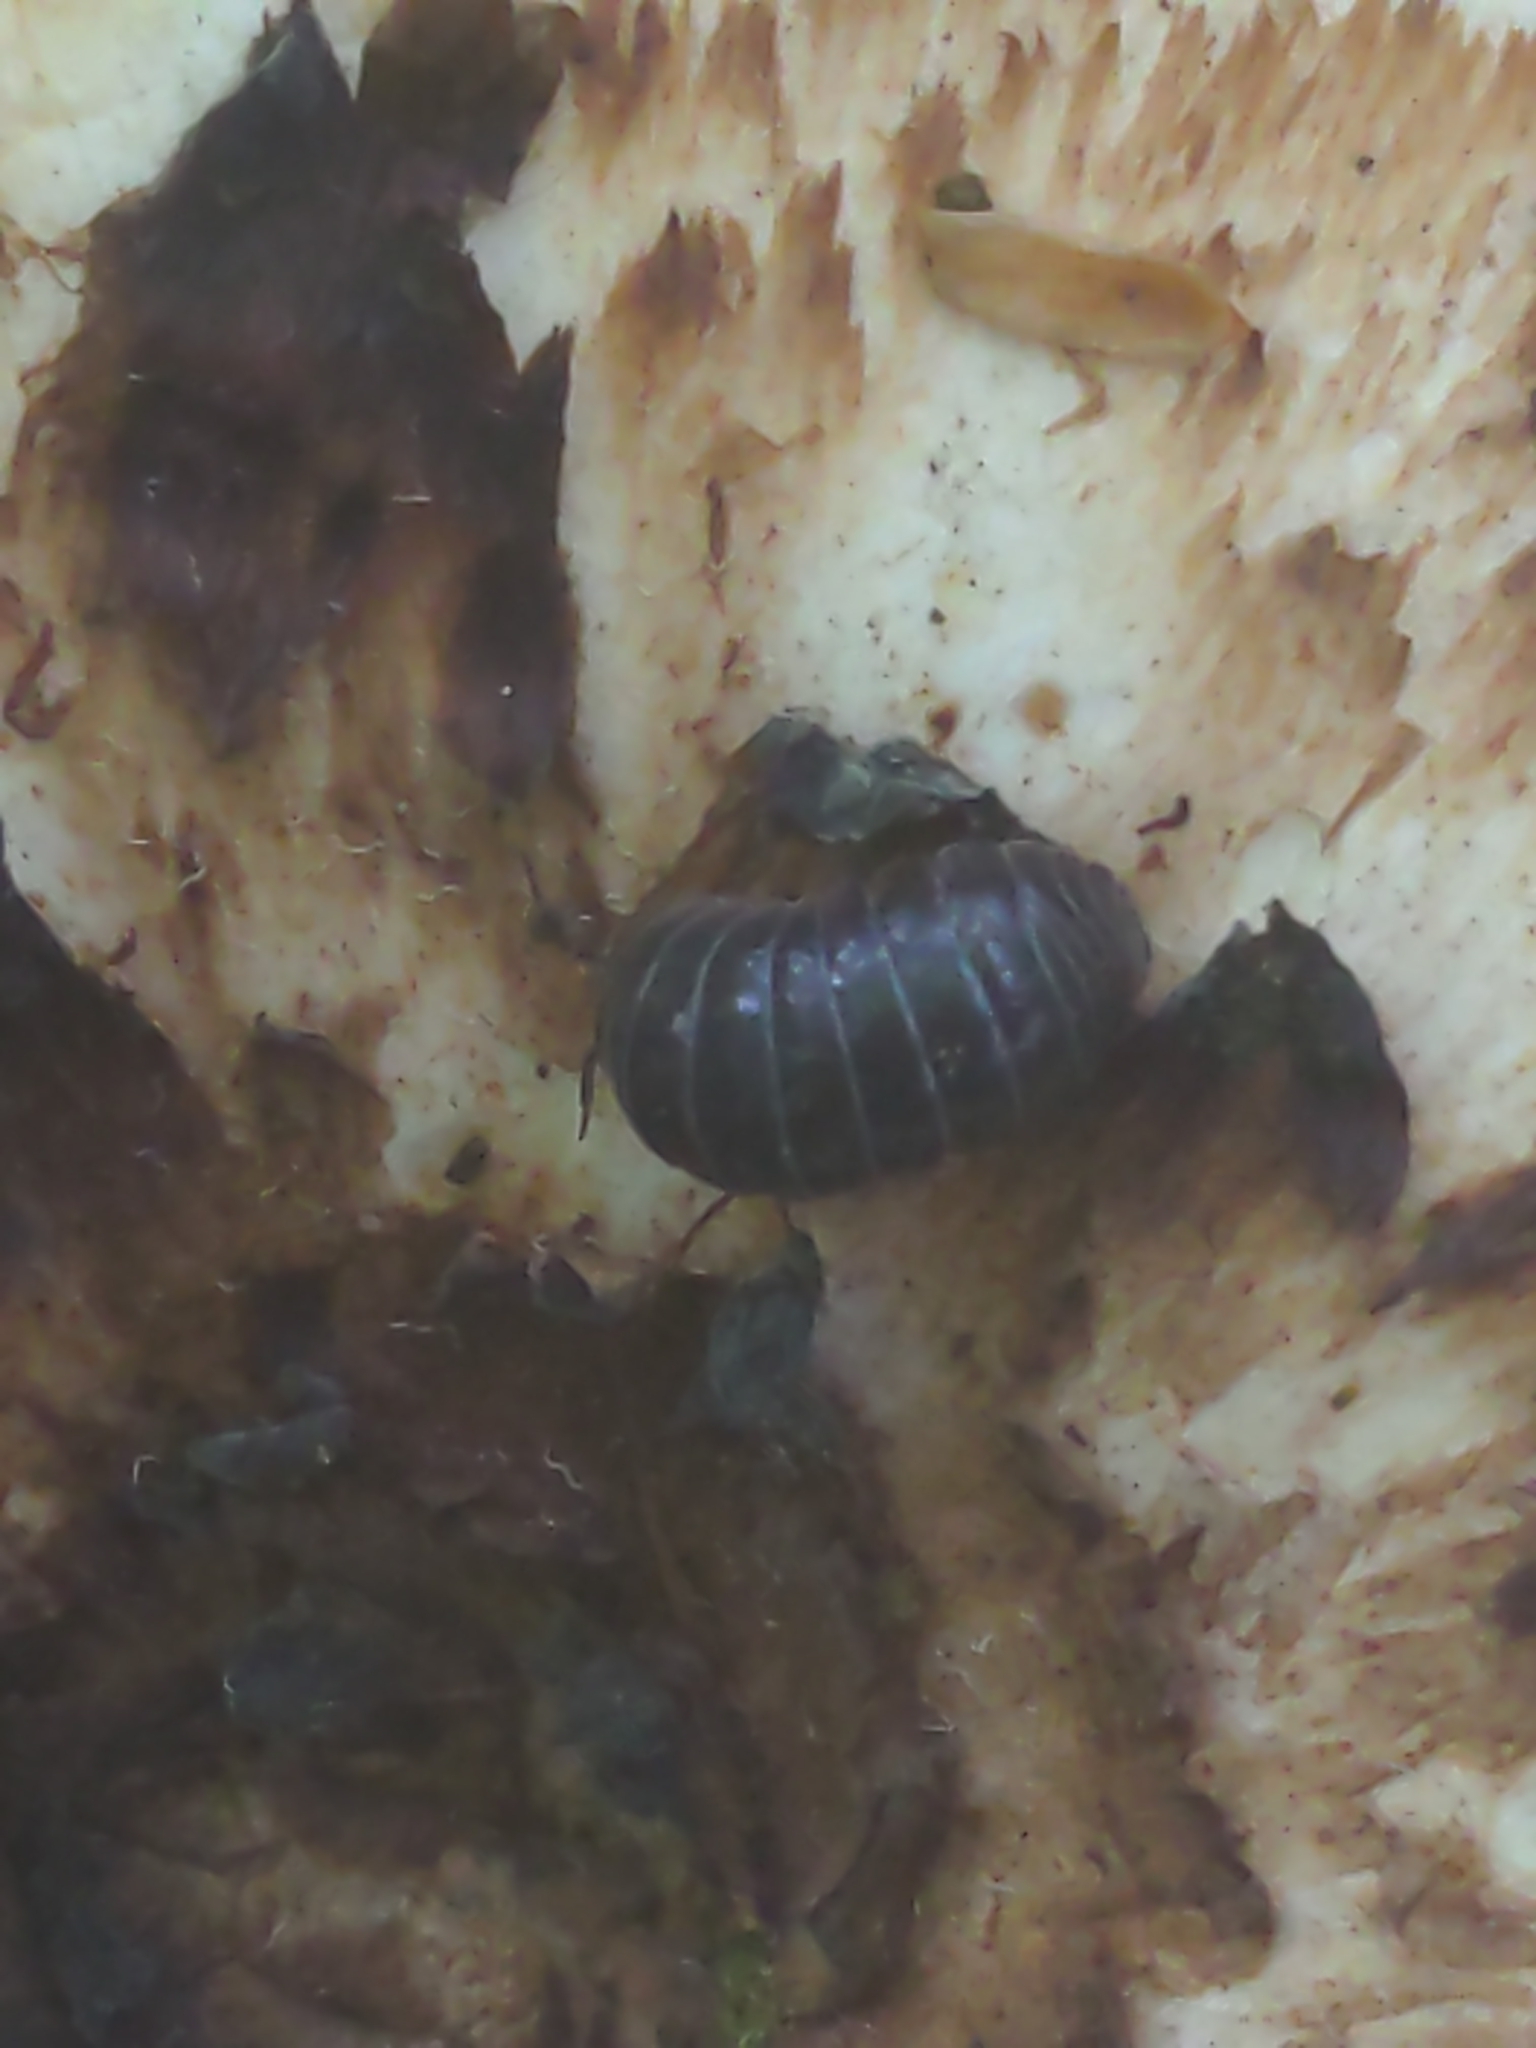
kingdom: Animalia
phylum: Arthropoda
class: Malacostraca
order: Isopoda
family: Armadillidiidae
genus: Armadillidium
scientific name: Armadillidium vulgare
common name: Common pill woodlouse
